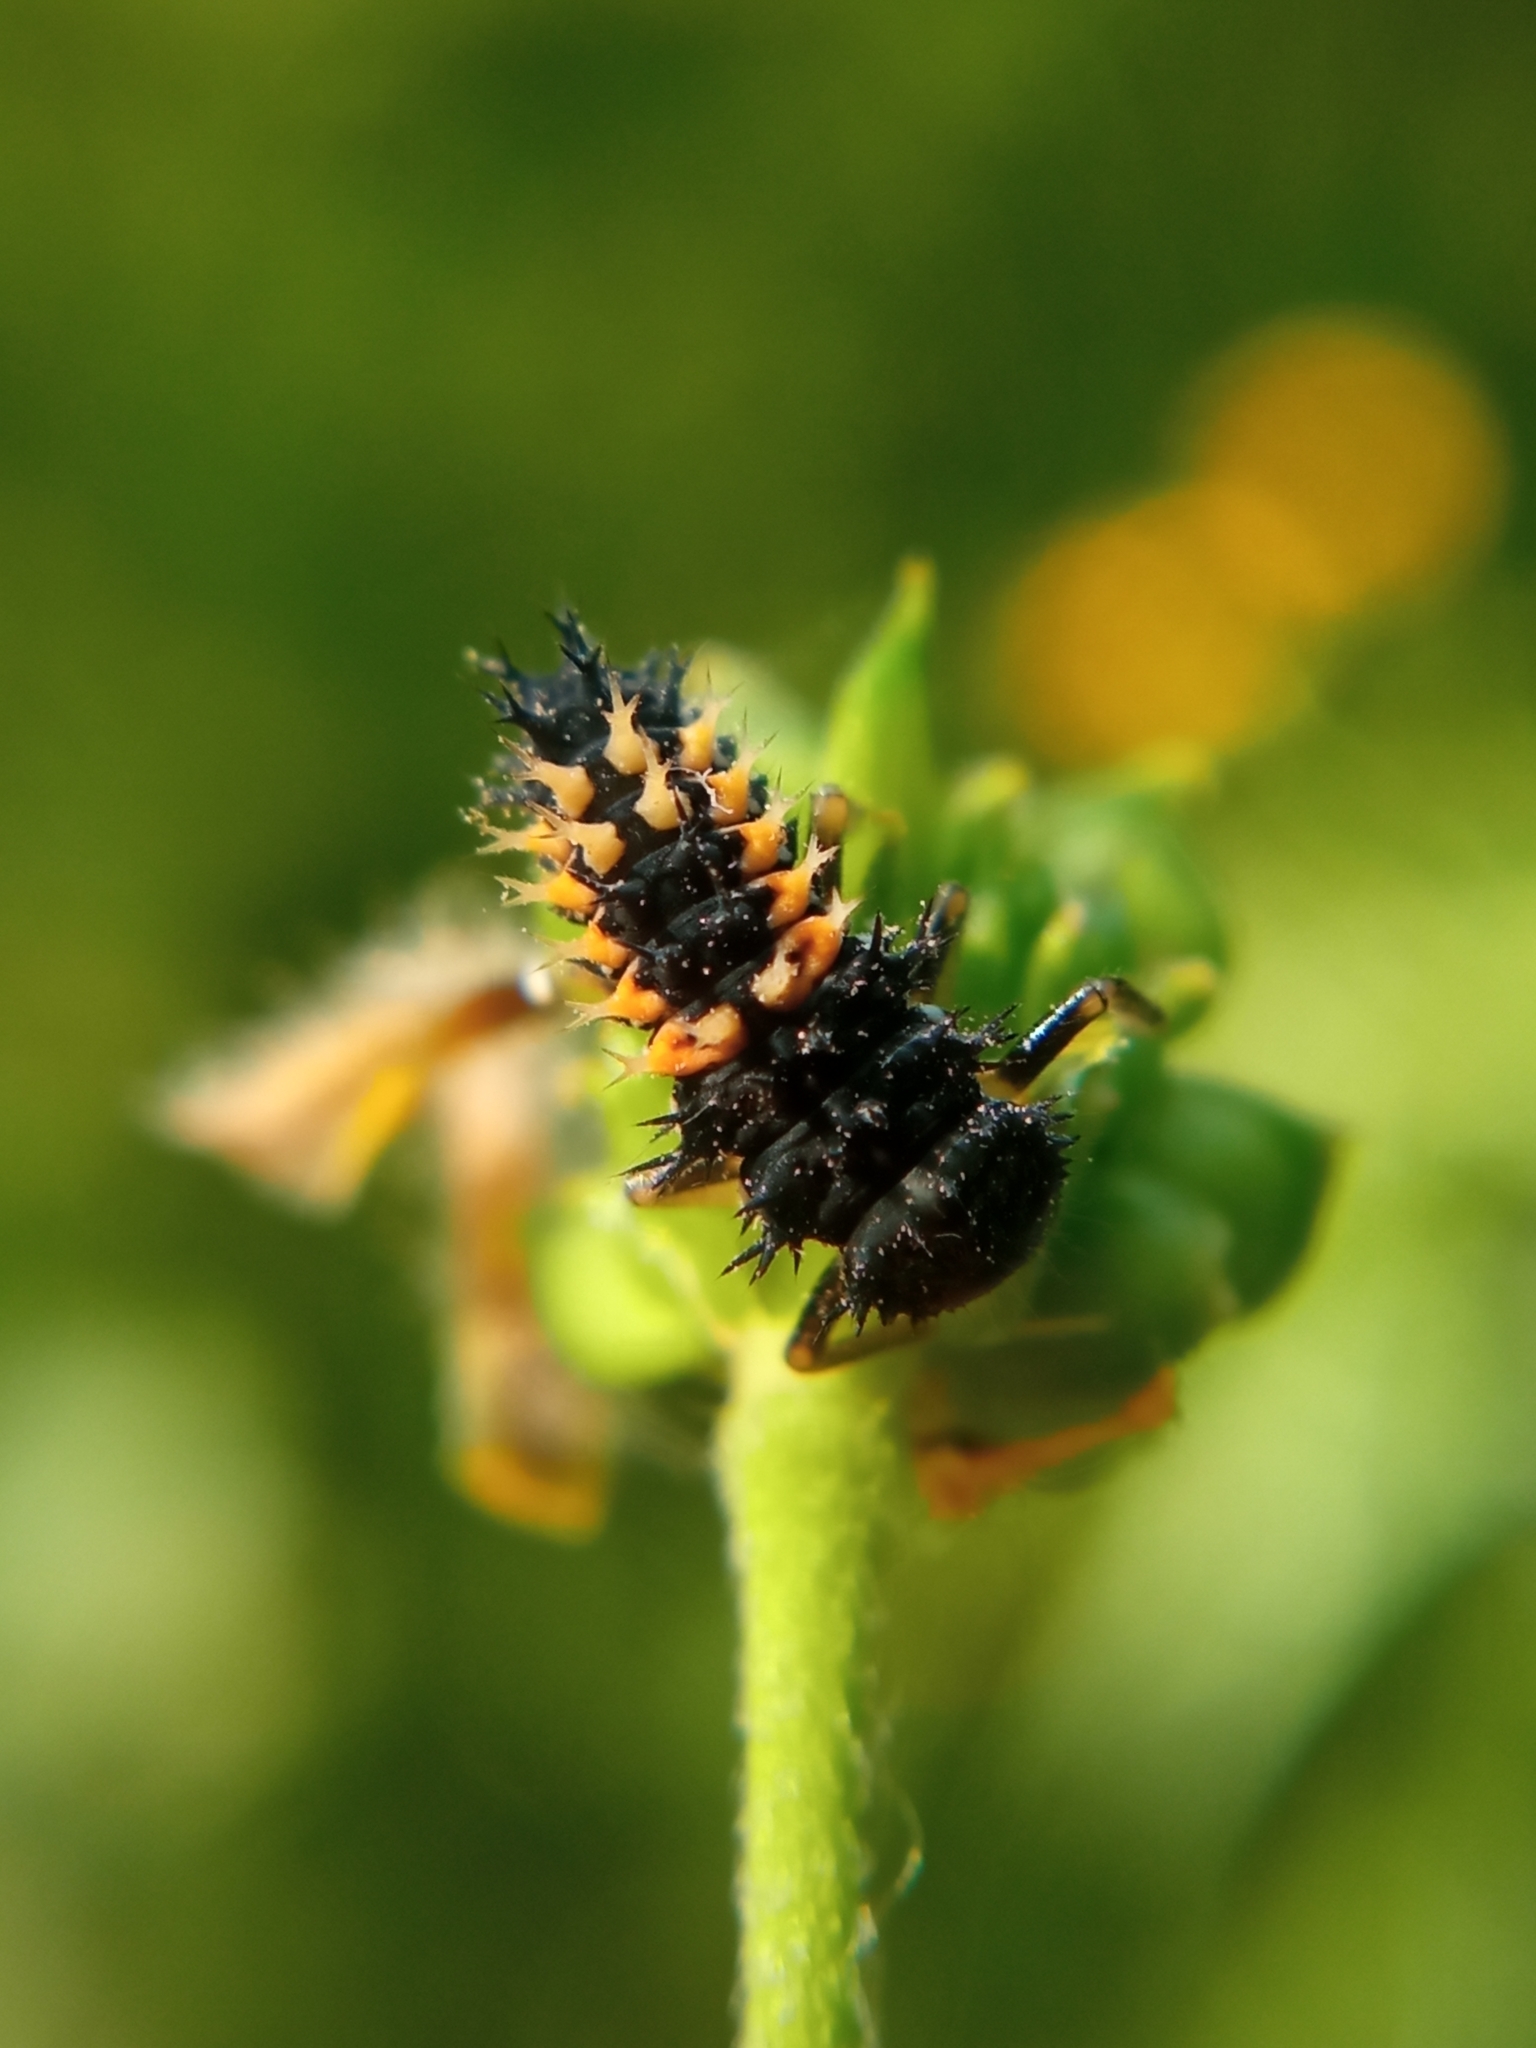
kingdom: Animalia
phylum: Arthropoda
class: Insecta
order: Coleoptera
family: Coccinellidae
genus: Harmonia
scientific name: Harmonia axyridis
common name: Harlequin ladybird
